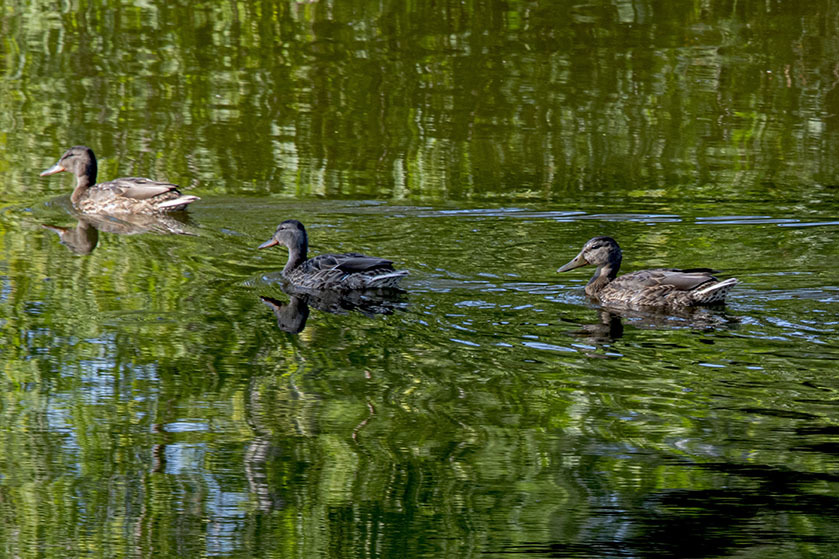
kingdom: Animalia
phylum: Chordata
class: Aves
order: Anseriformes
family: Anatidae
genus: Anas
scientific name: Anas platyrhynchos
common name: Mallard
